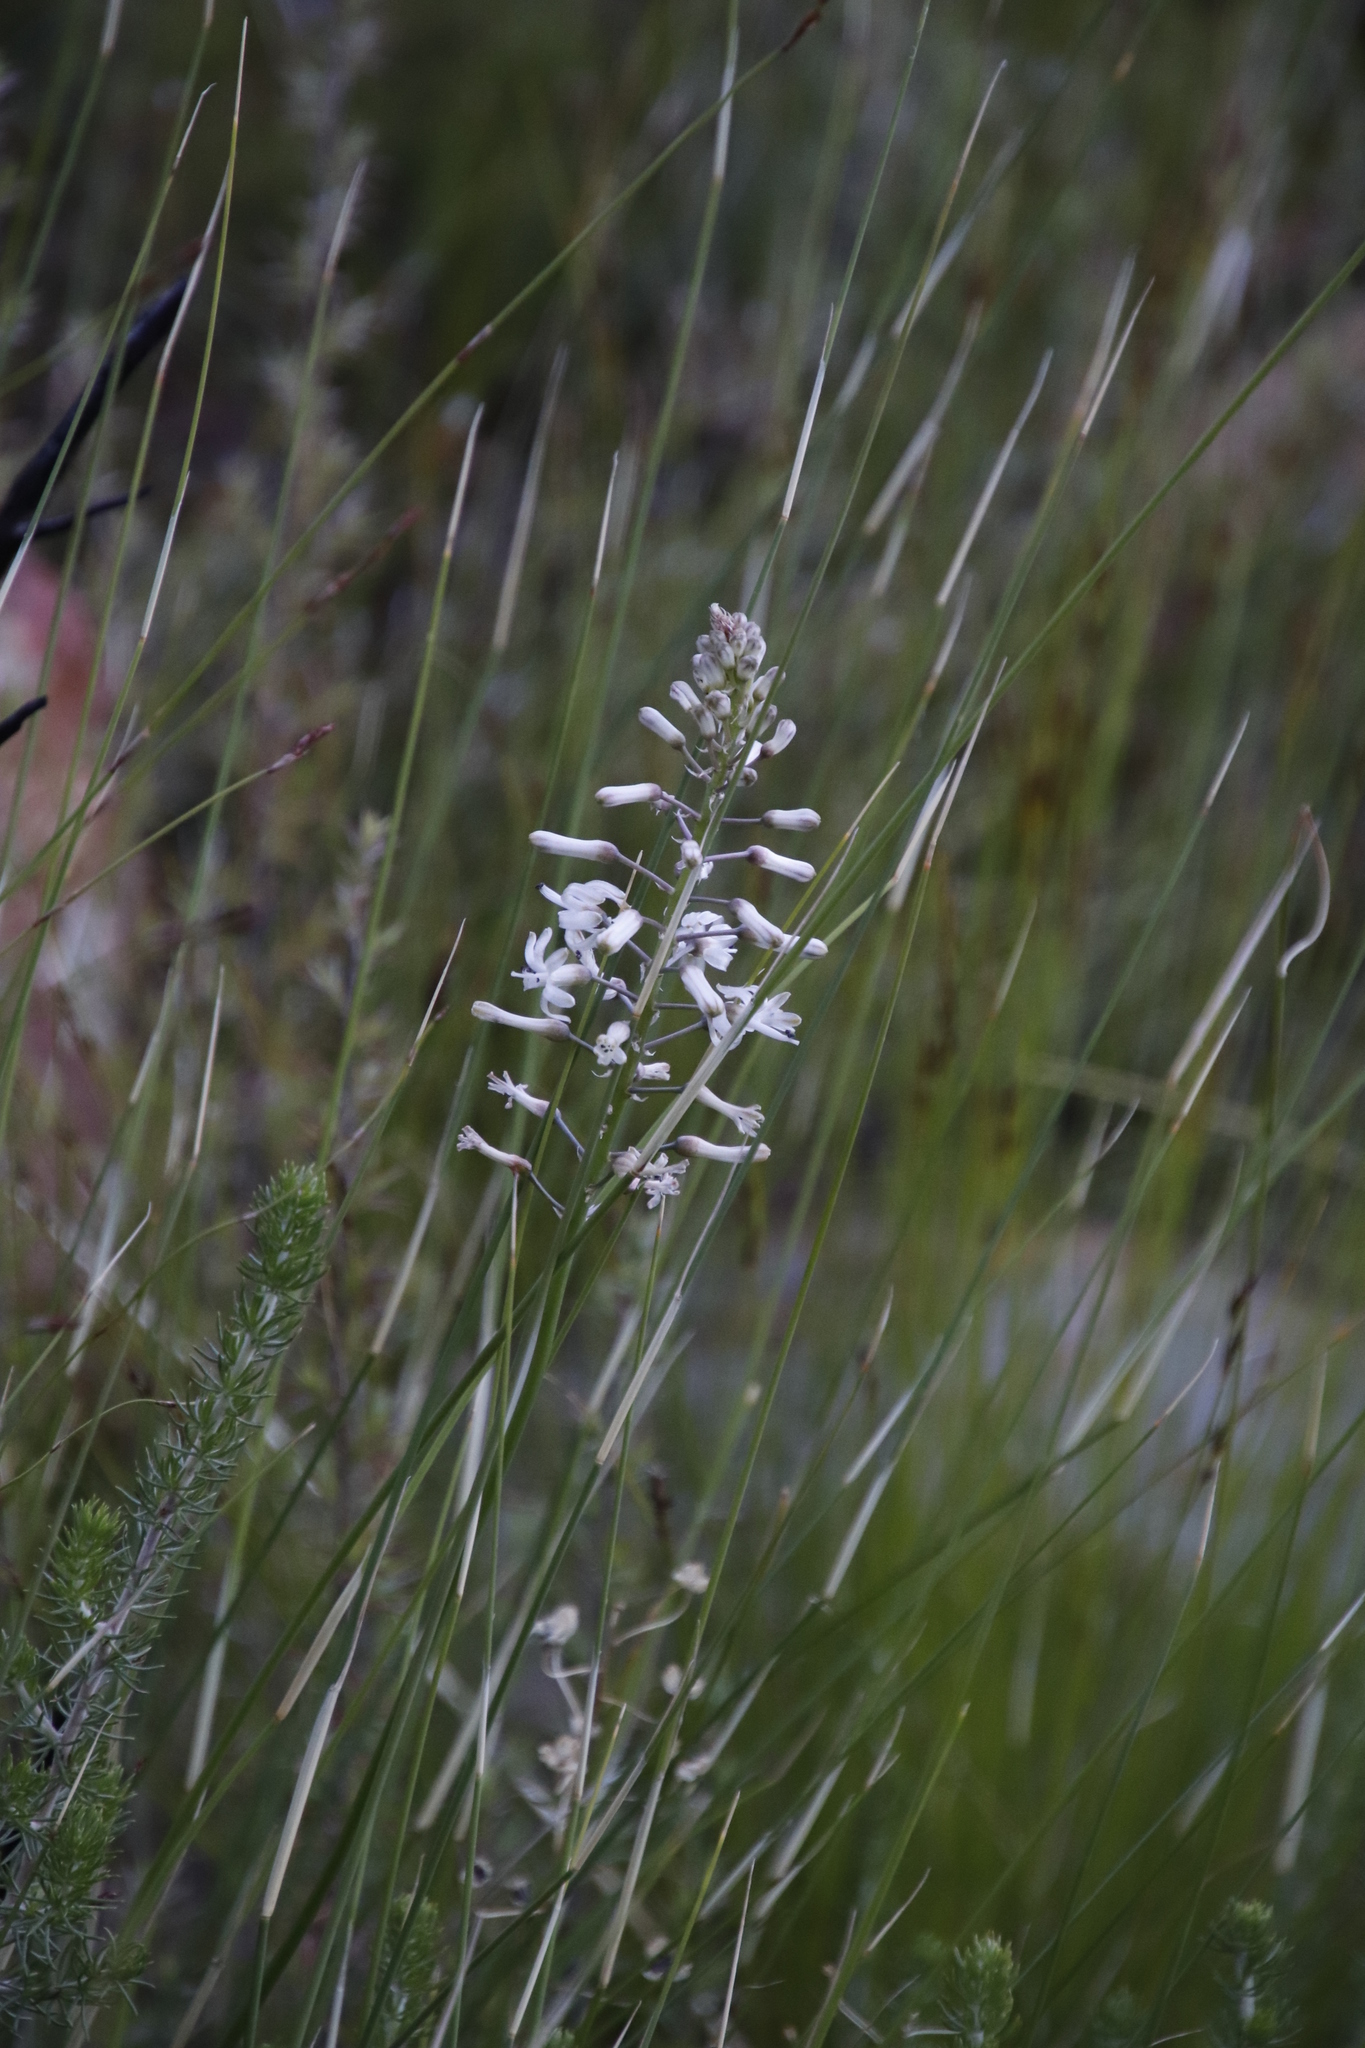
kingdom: Plantae
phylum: Tracheophyta
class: Liliopsida
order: Asparagales
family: Asparagaceae
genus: Drimia
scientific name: Drimia media
